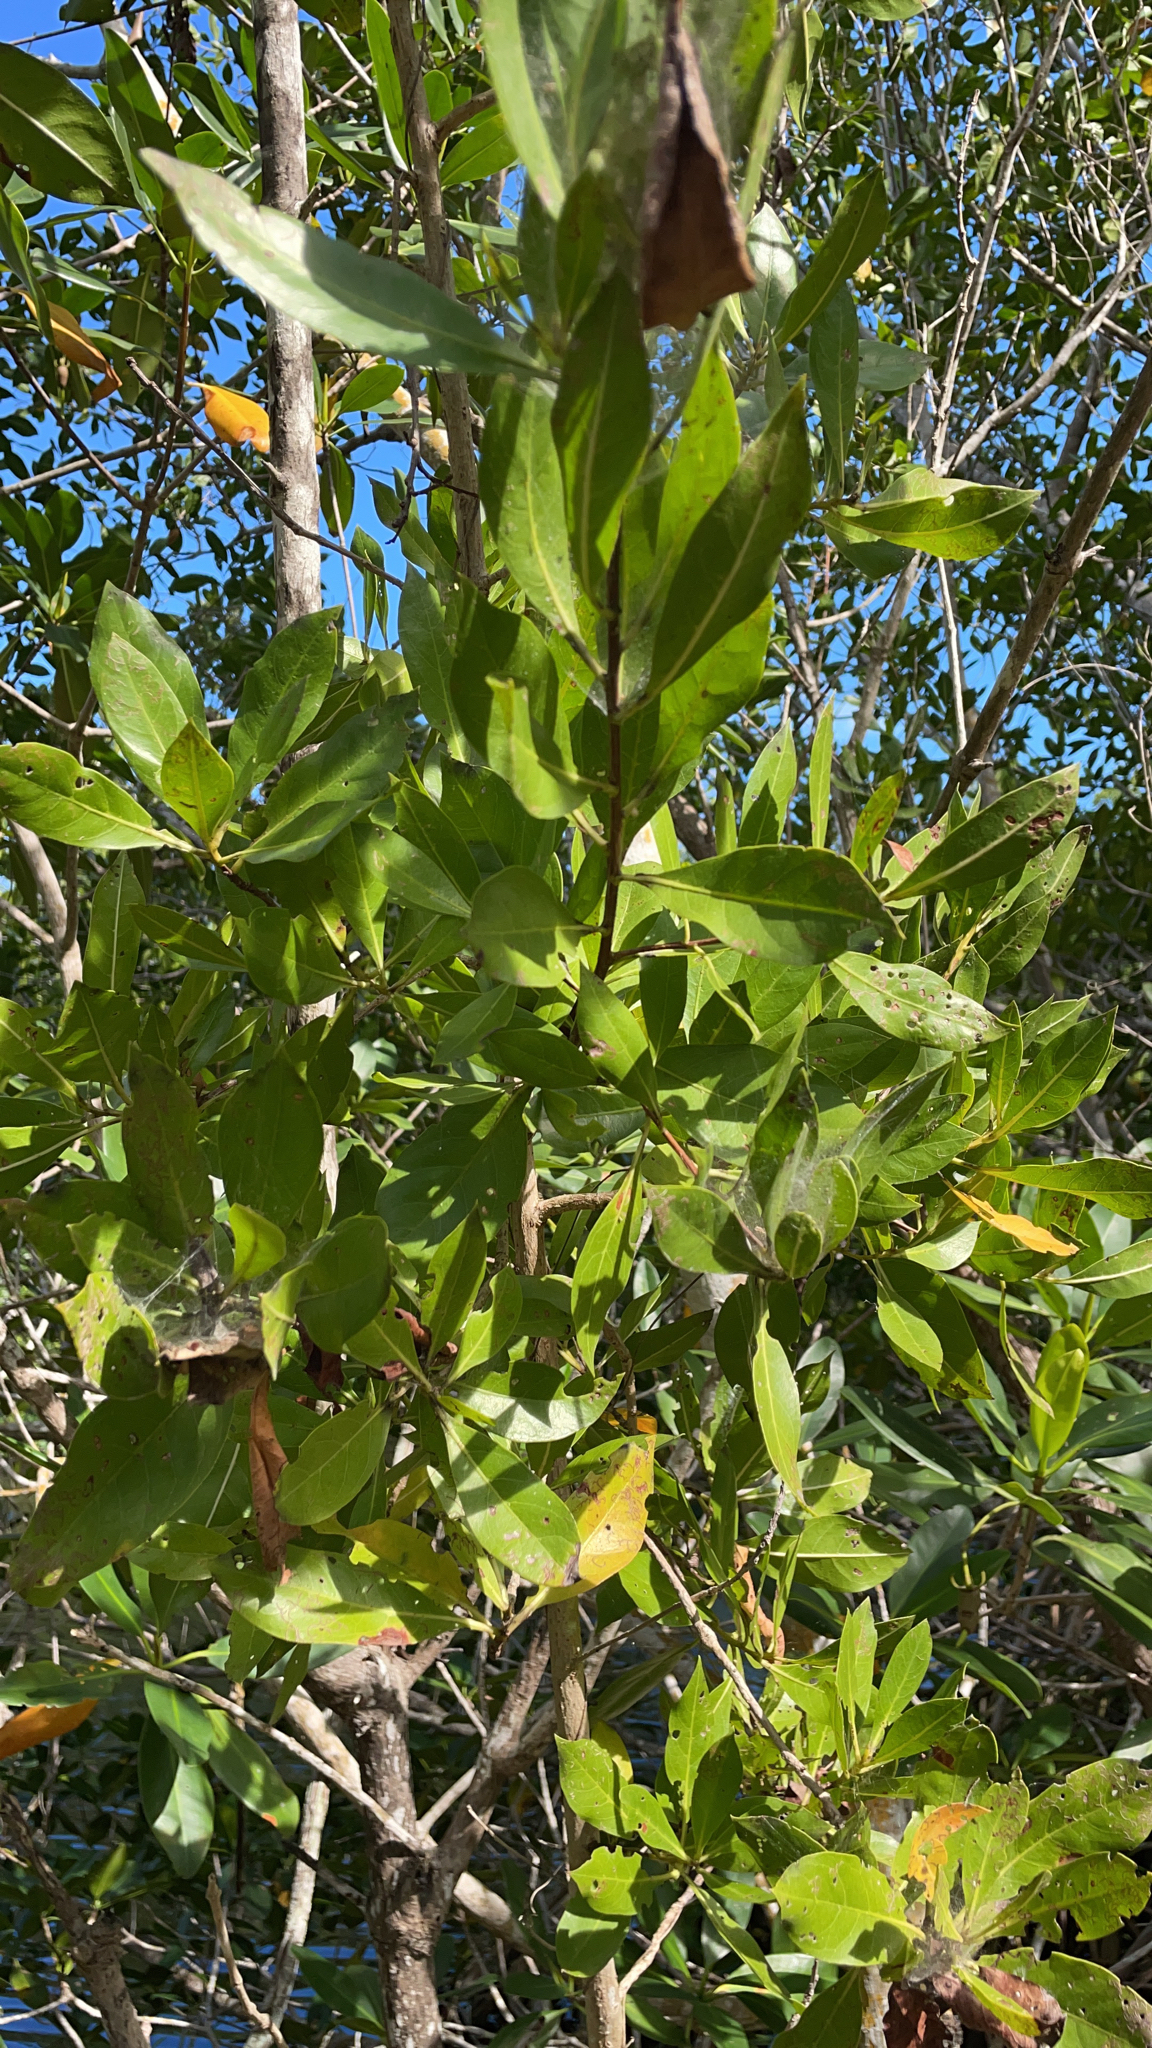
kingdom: Plantae
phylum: Tracheophyta
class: Magnoliopsida
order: Myrtales
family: Combretaceae
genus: Conocarpus
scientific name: Conocarpus erectus
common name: Button mangrove
